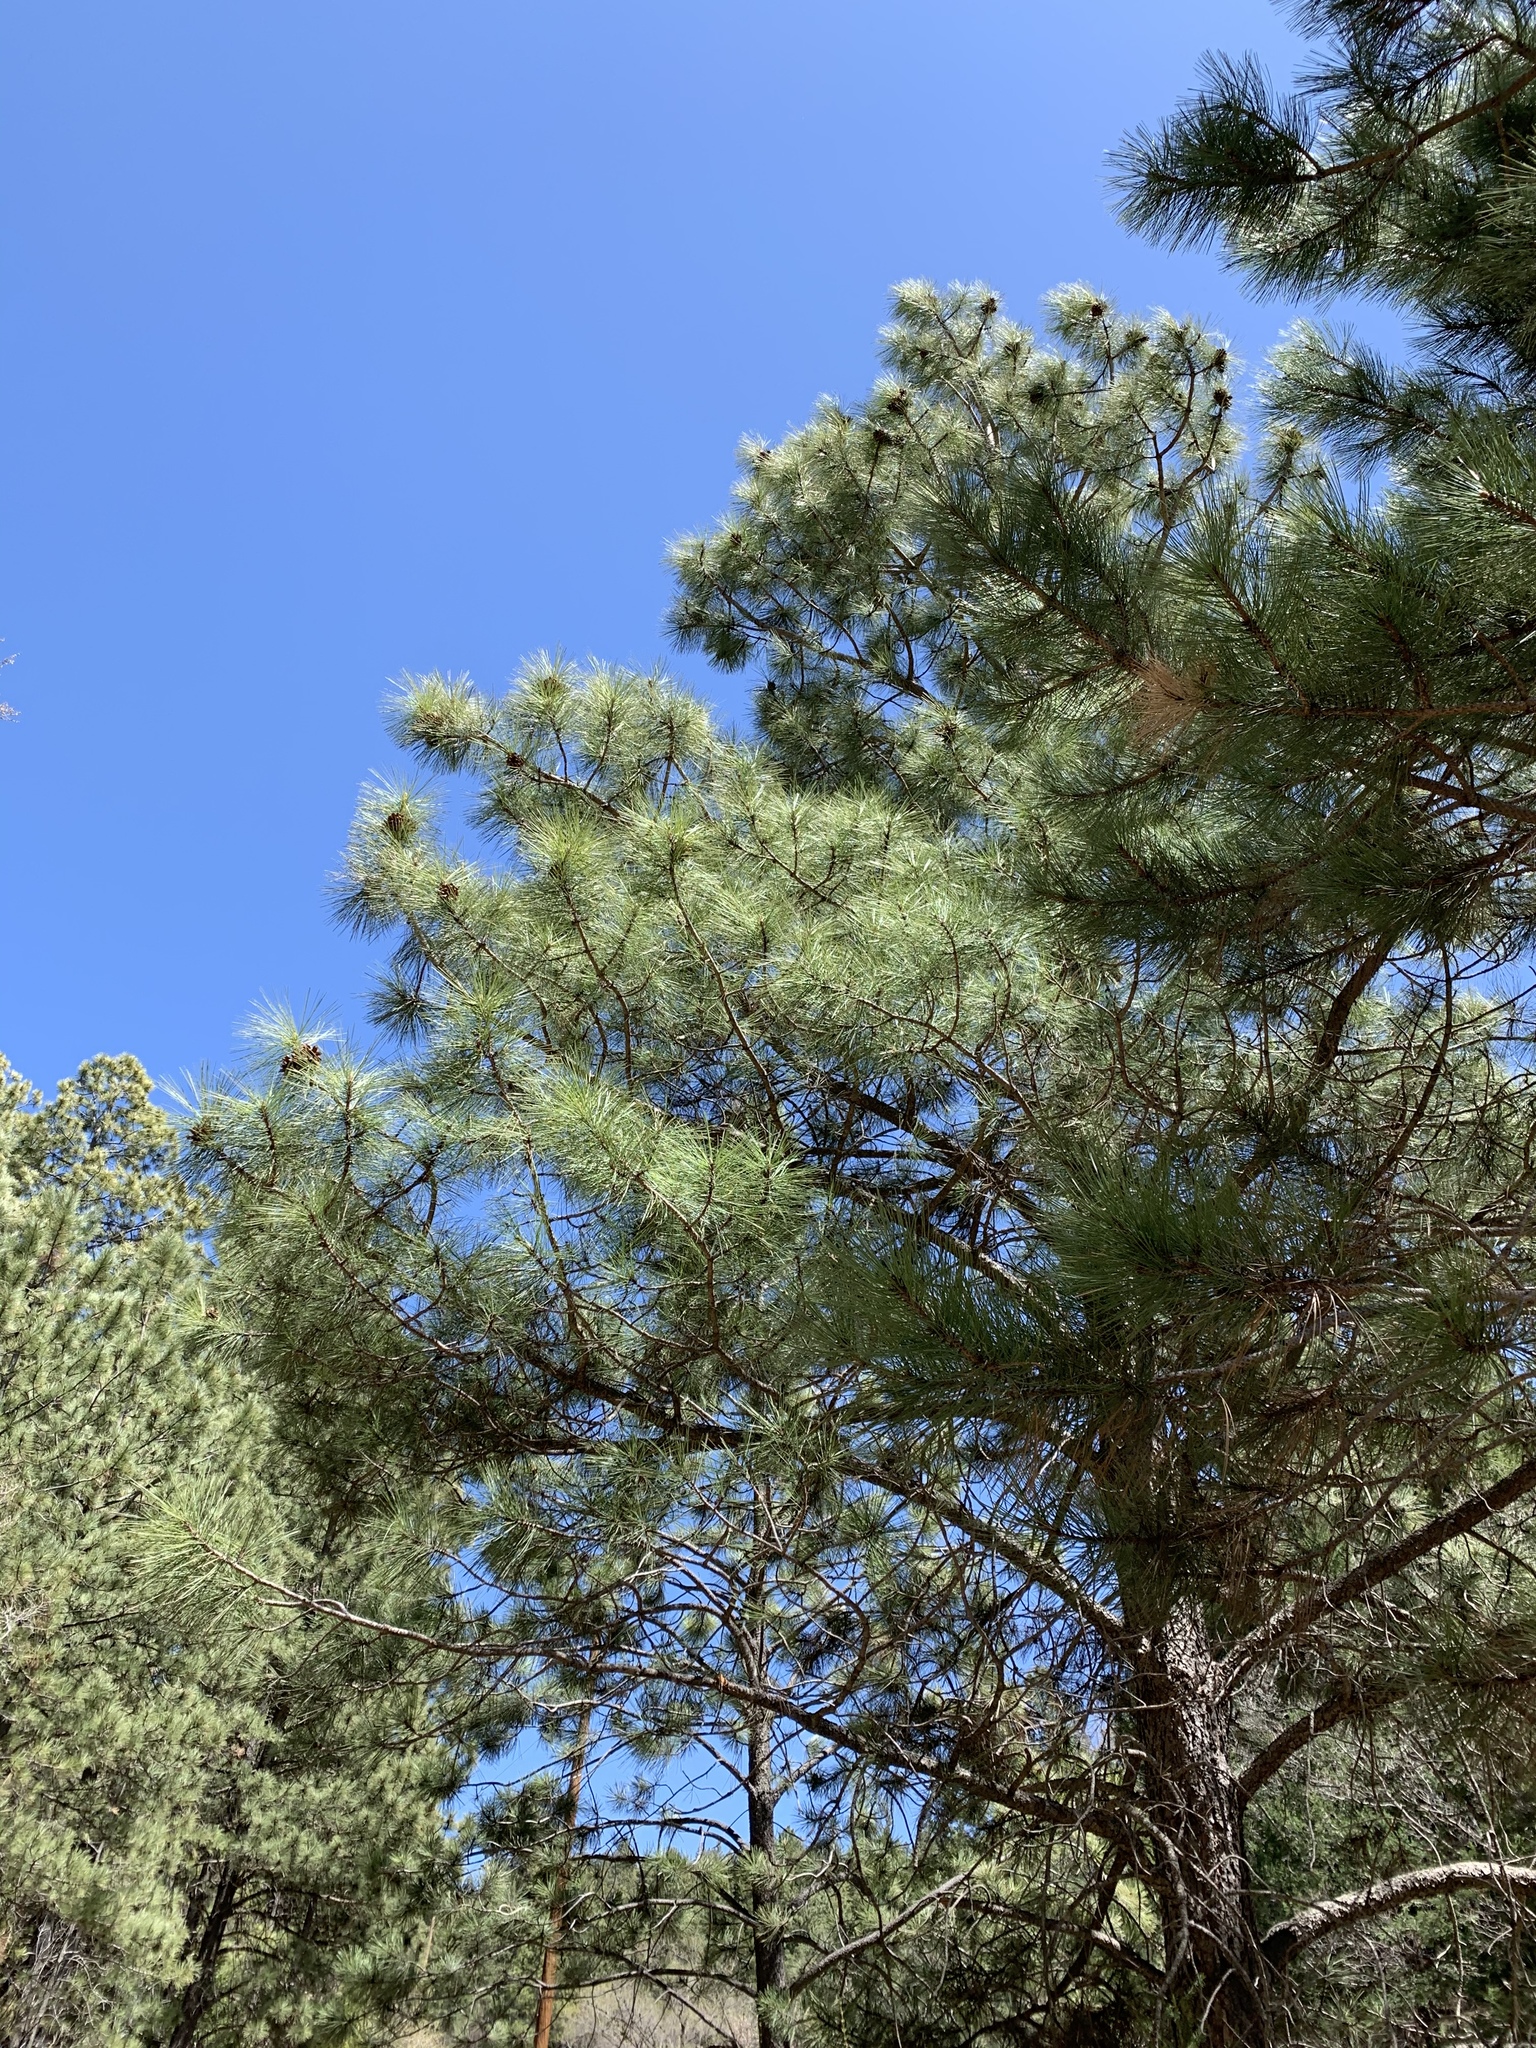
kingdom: Plantae
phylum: Tracheophyta
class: Pinopsida
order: Pinales
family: Pinaceae
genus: Pinus
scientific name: Pinus ponderosa
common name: Western yellow-pine
